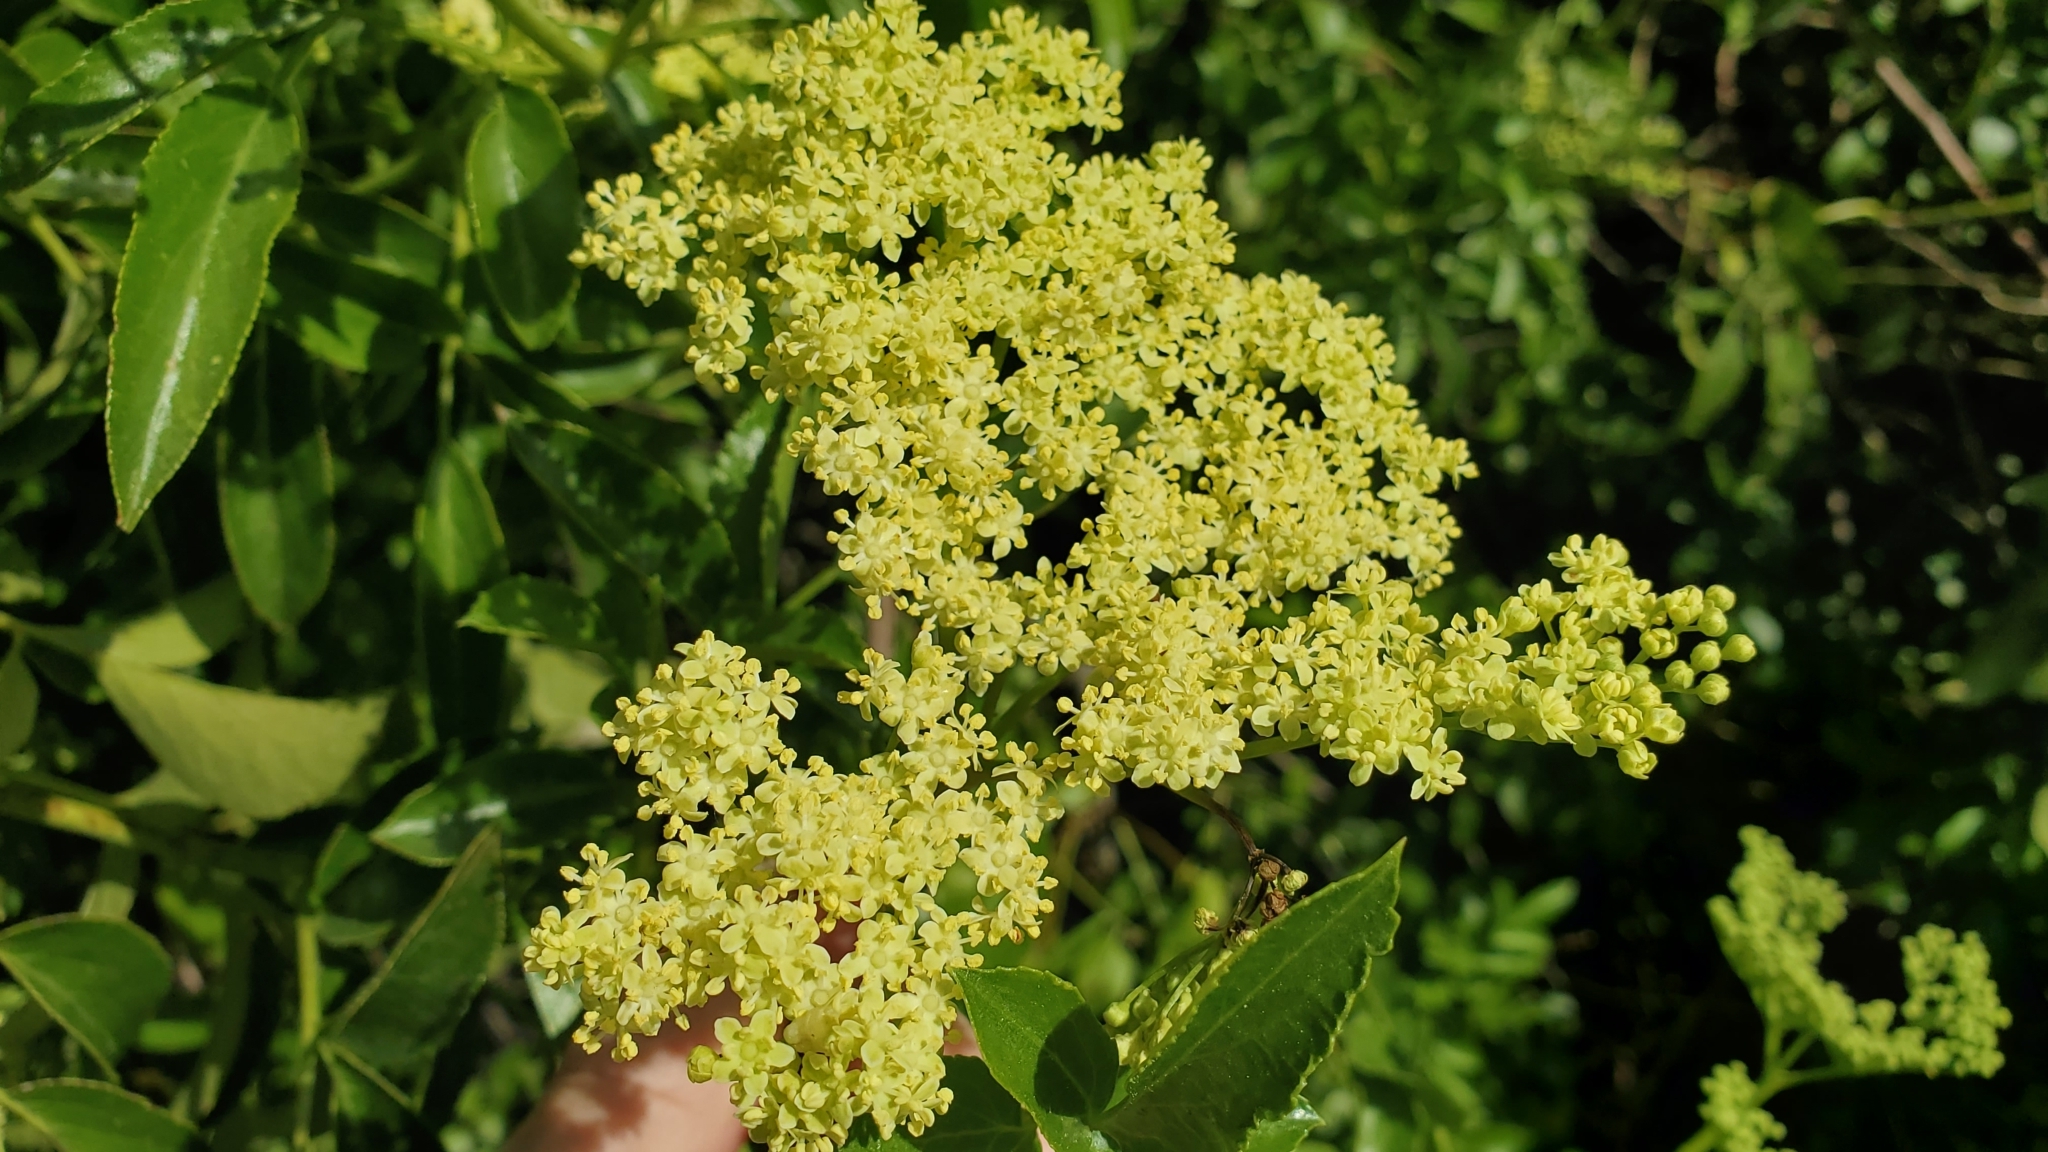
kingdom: Plantae
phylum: Tracheophyta
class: Magnoliopsida
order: Dipsacales
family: Viburnaceae
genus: Sambucus
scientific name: Sambucus cerulea
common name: Blue elder
